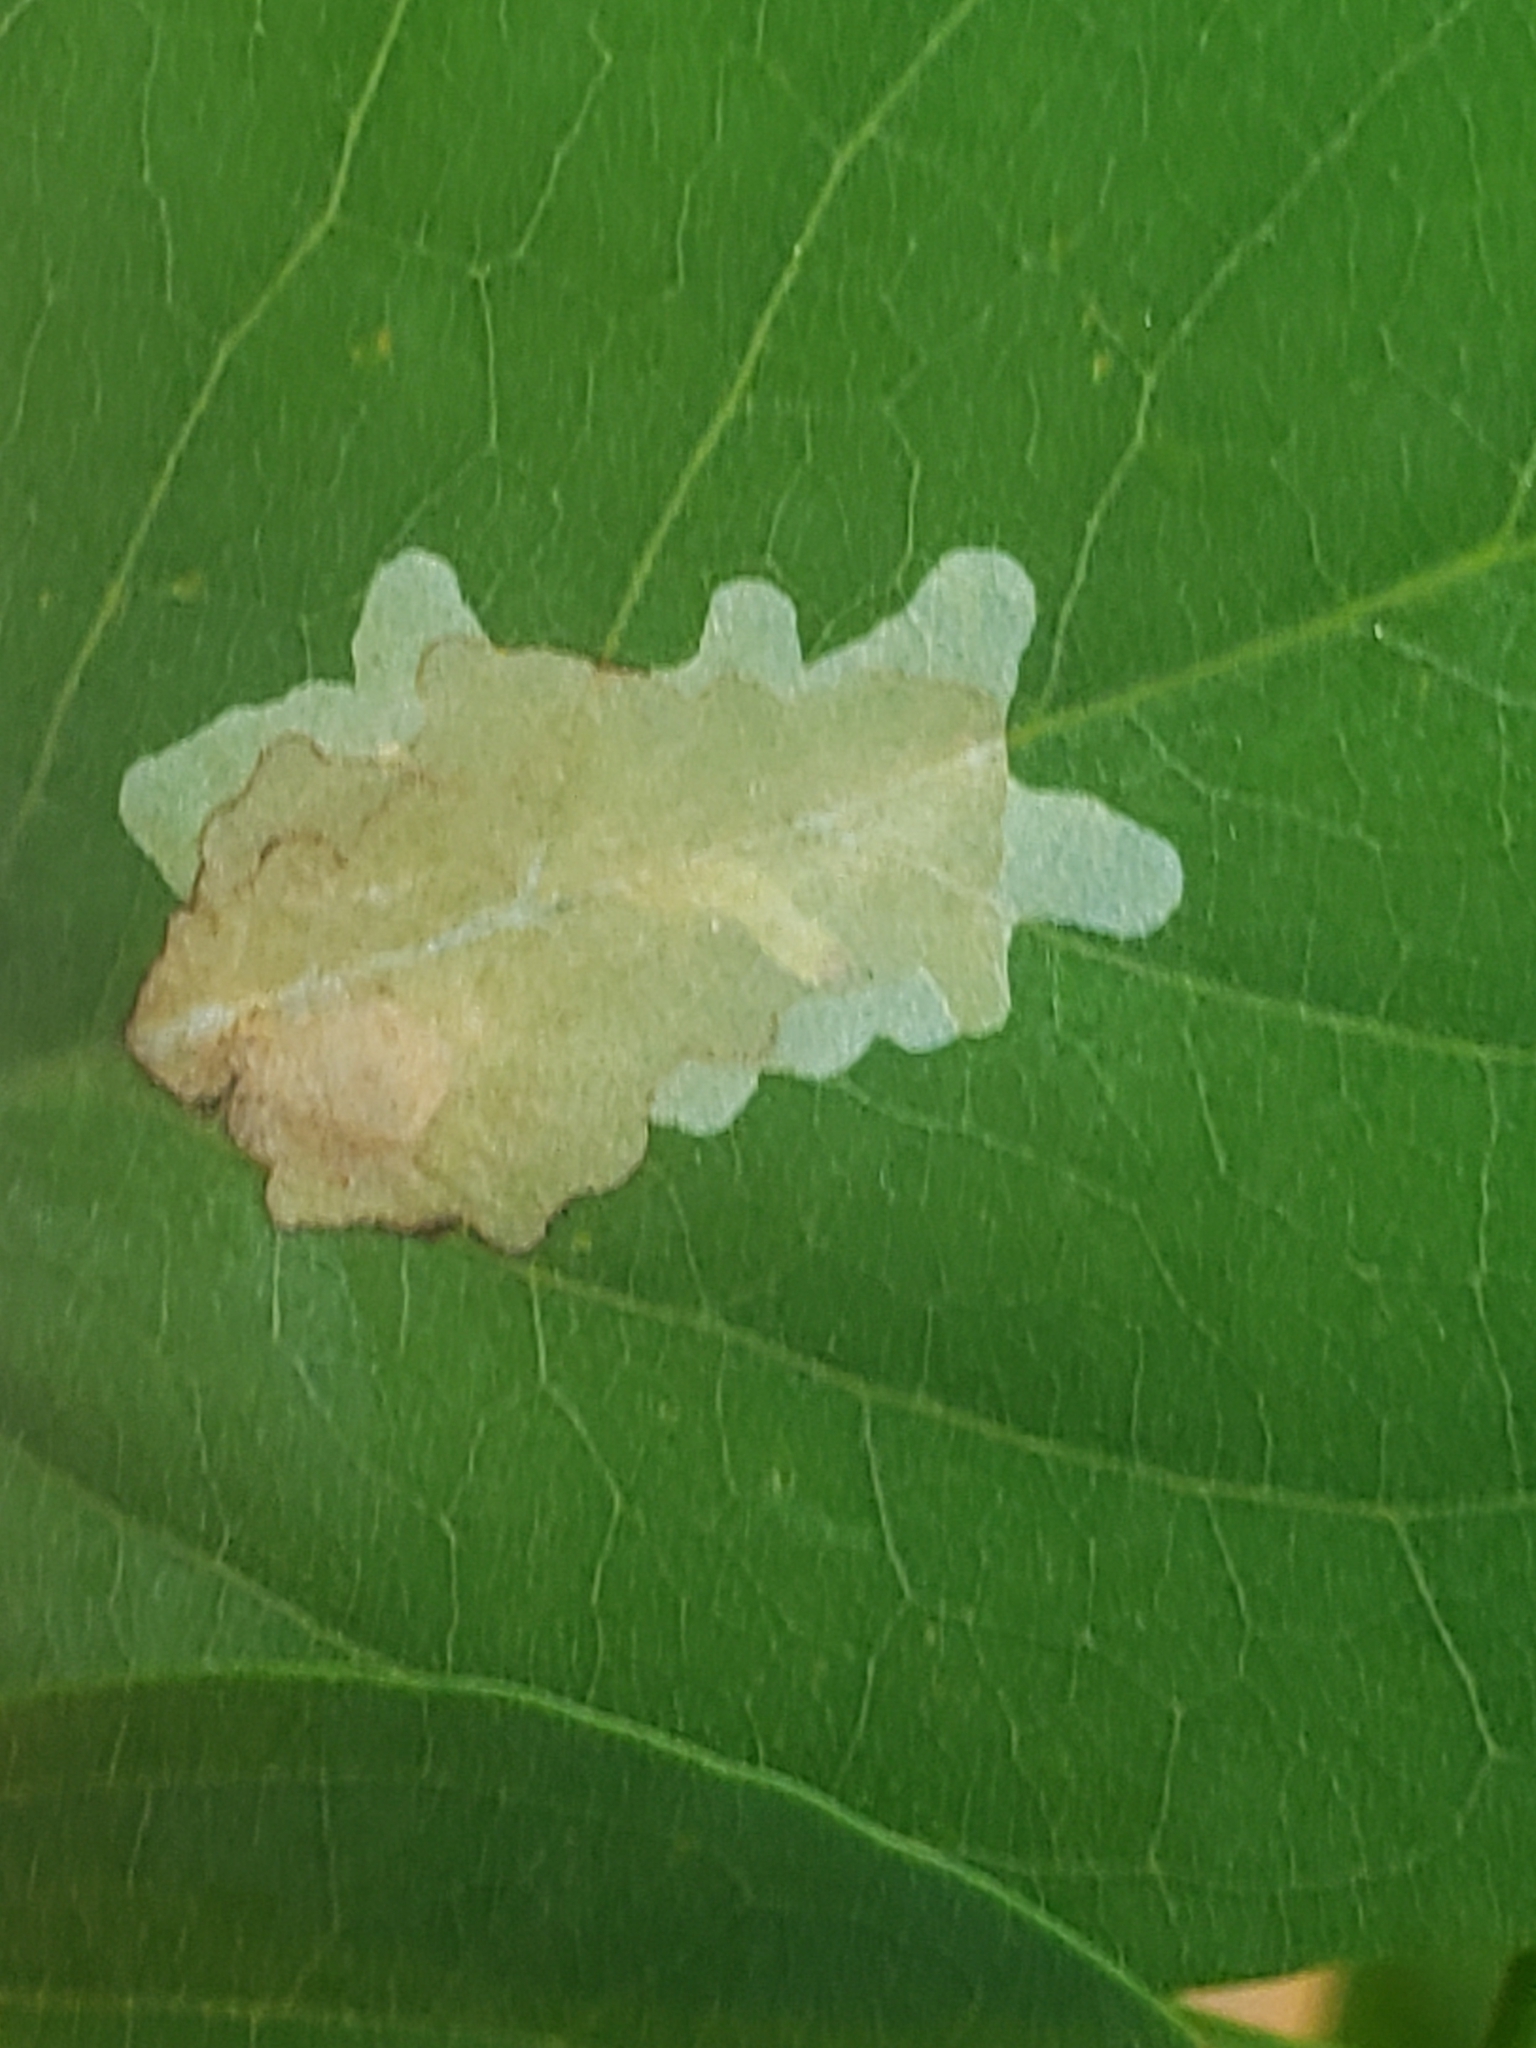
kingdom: Animalia
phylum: Arthropoda
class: Insecta
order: Lepidoptera
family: Gracillariidae
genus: Parectopa
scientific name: Parectopa robiniella
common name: Locust digitate leafminer
